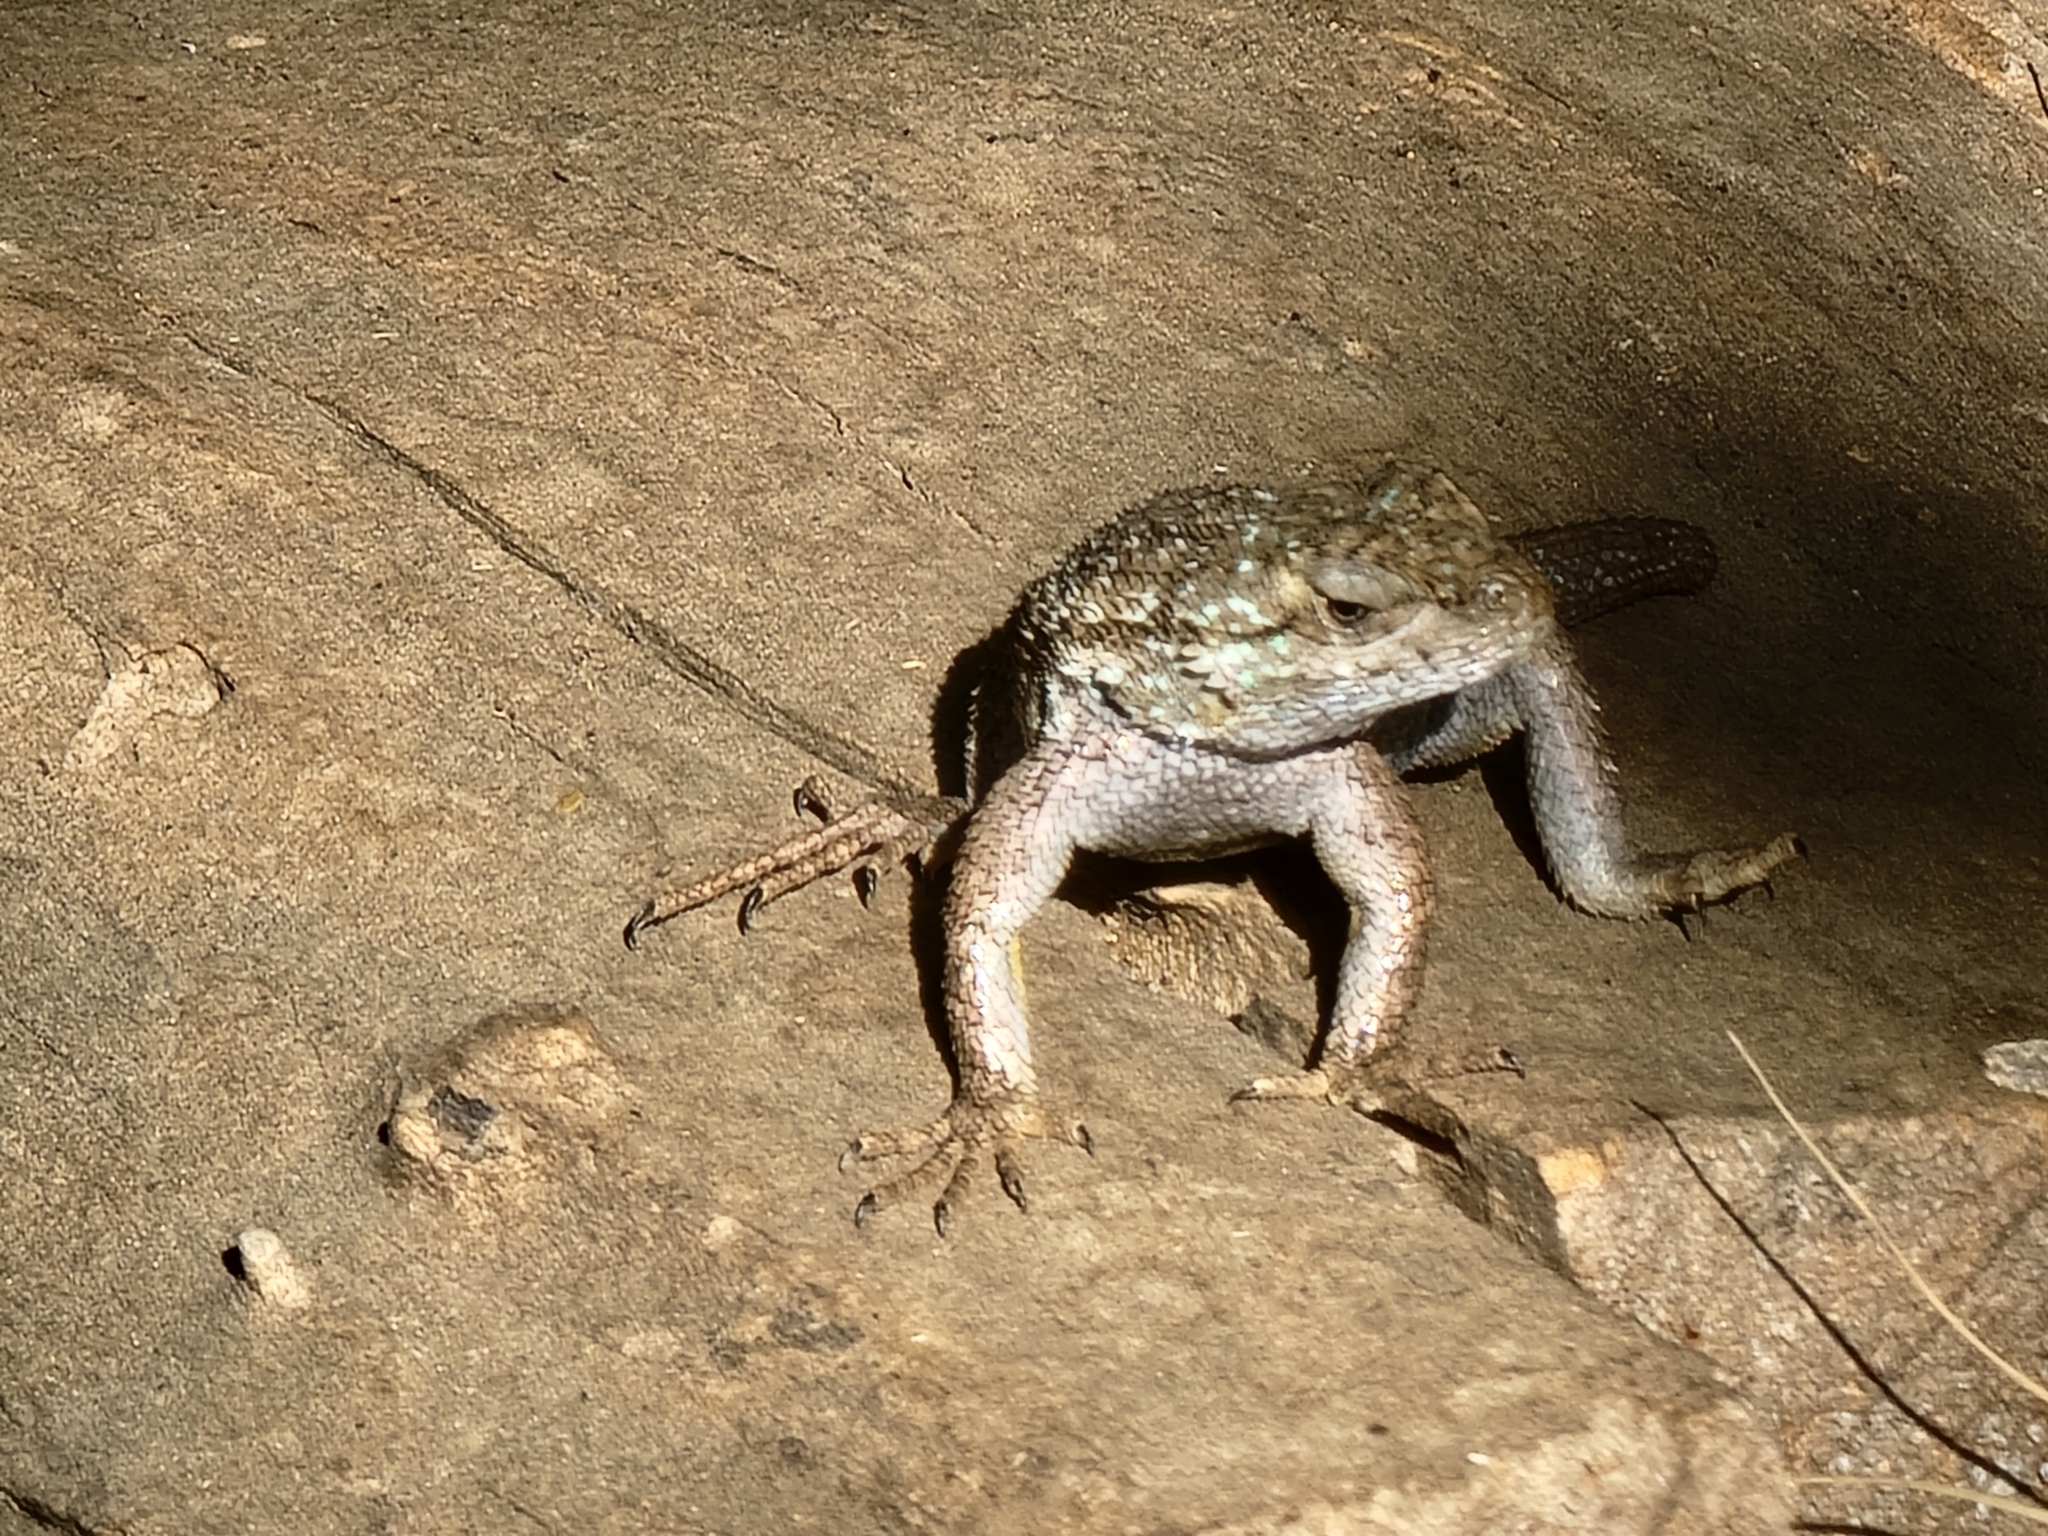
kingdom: Animalia
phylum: Chordata
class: Squamata
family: Phrynosomatidae
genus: Sceloporus
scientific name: Sceloporus occidentalis
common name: Western fence lizard
